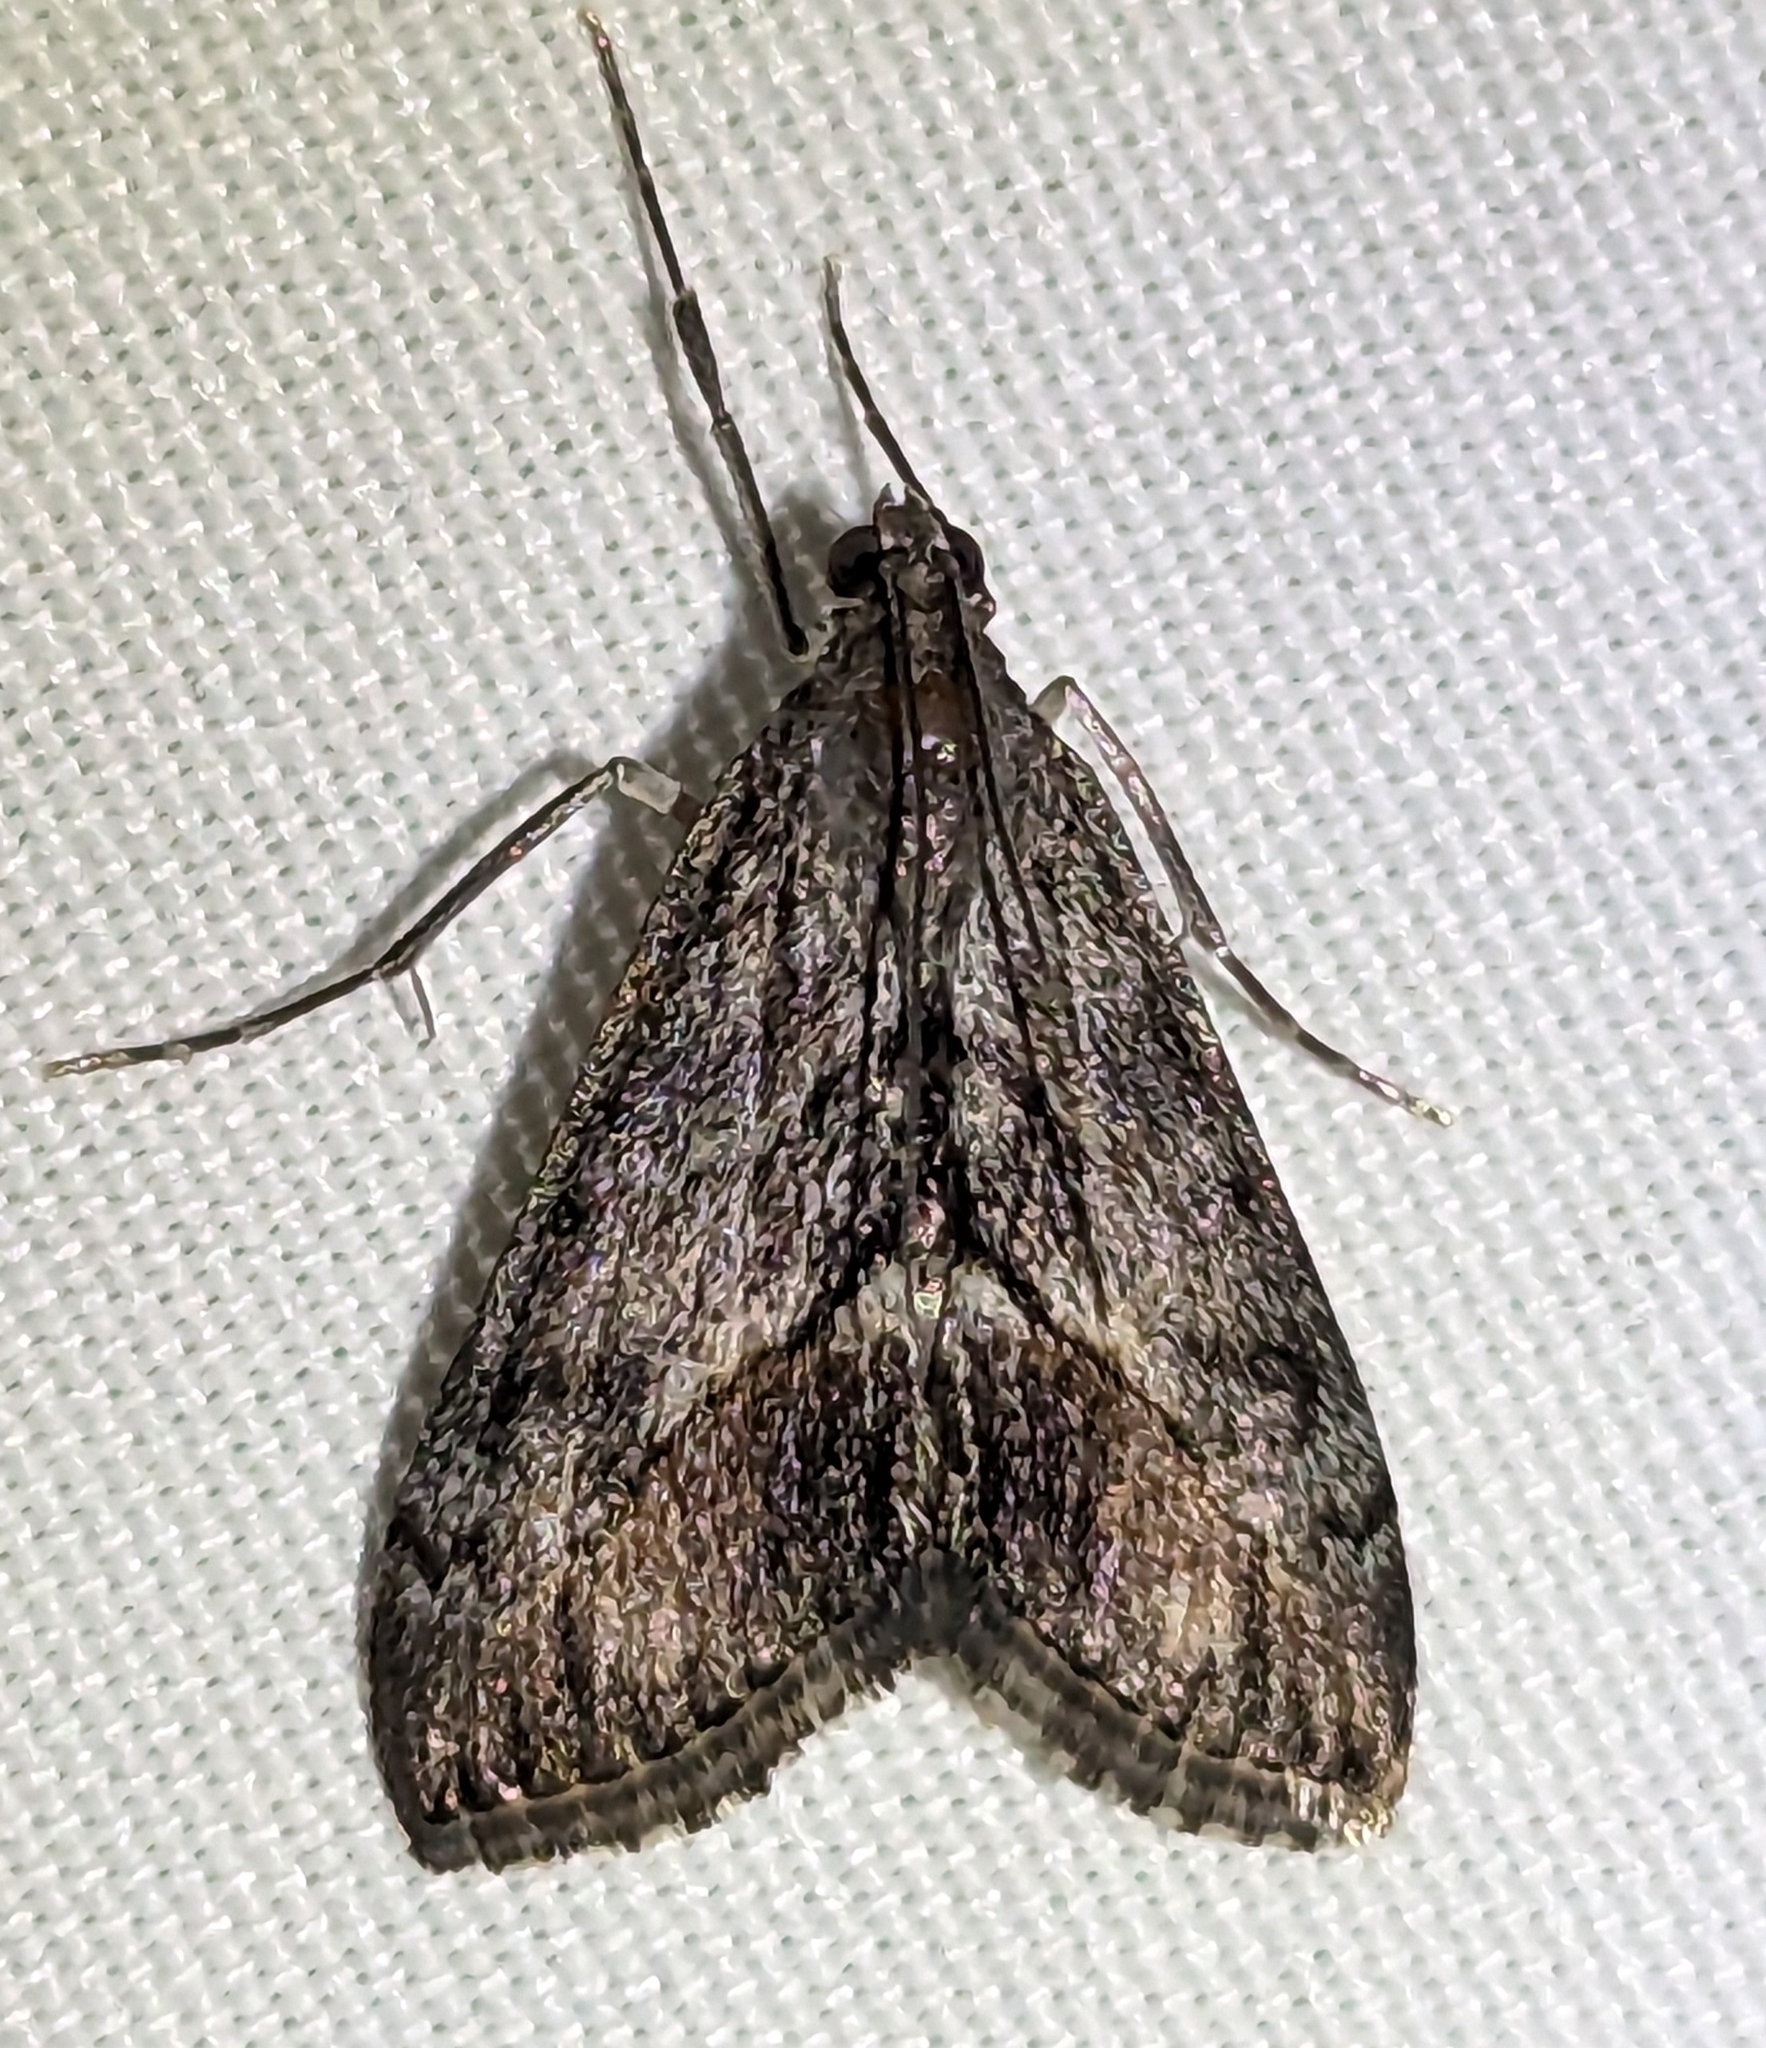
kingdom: Animalia
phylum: Arthropoda
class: Insecta
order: Lepidoptera
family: Crambidae
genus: Evergestis
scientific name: Evergestis subterminalis
